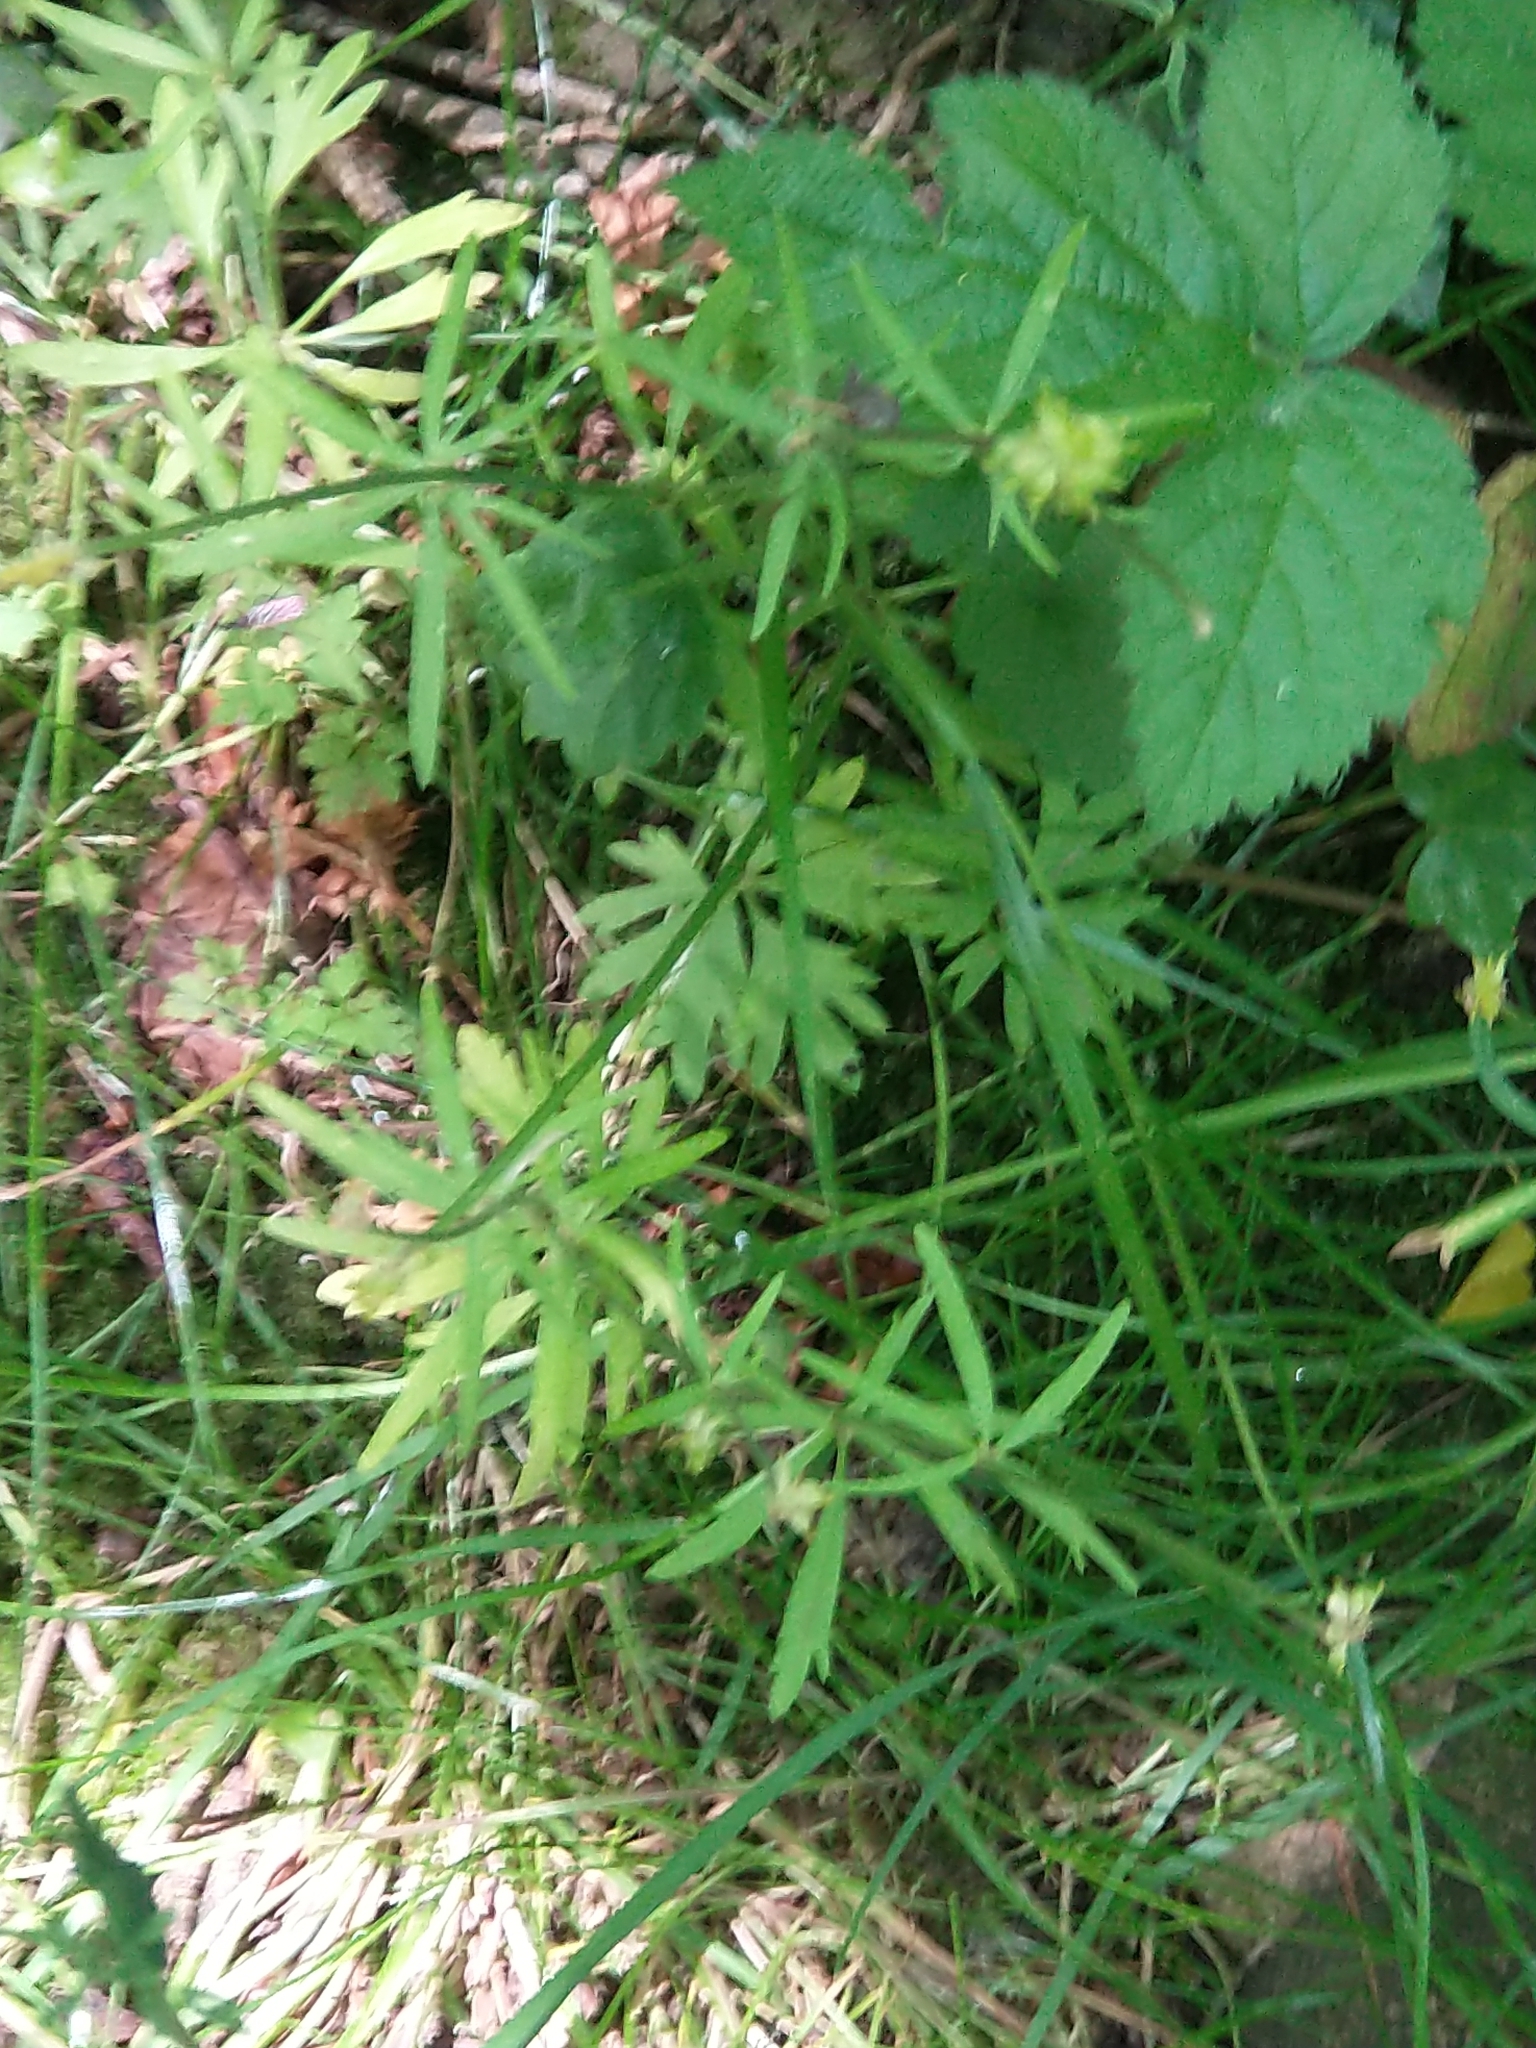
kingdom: Plantae
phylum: Tracheophyta
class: Magnoliopsida
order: Ranunculales
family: Ranunculaceae
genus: Ranunculus
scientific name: Ranunculus auricomus
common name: Goldilocks buttercup
